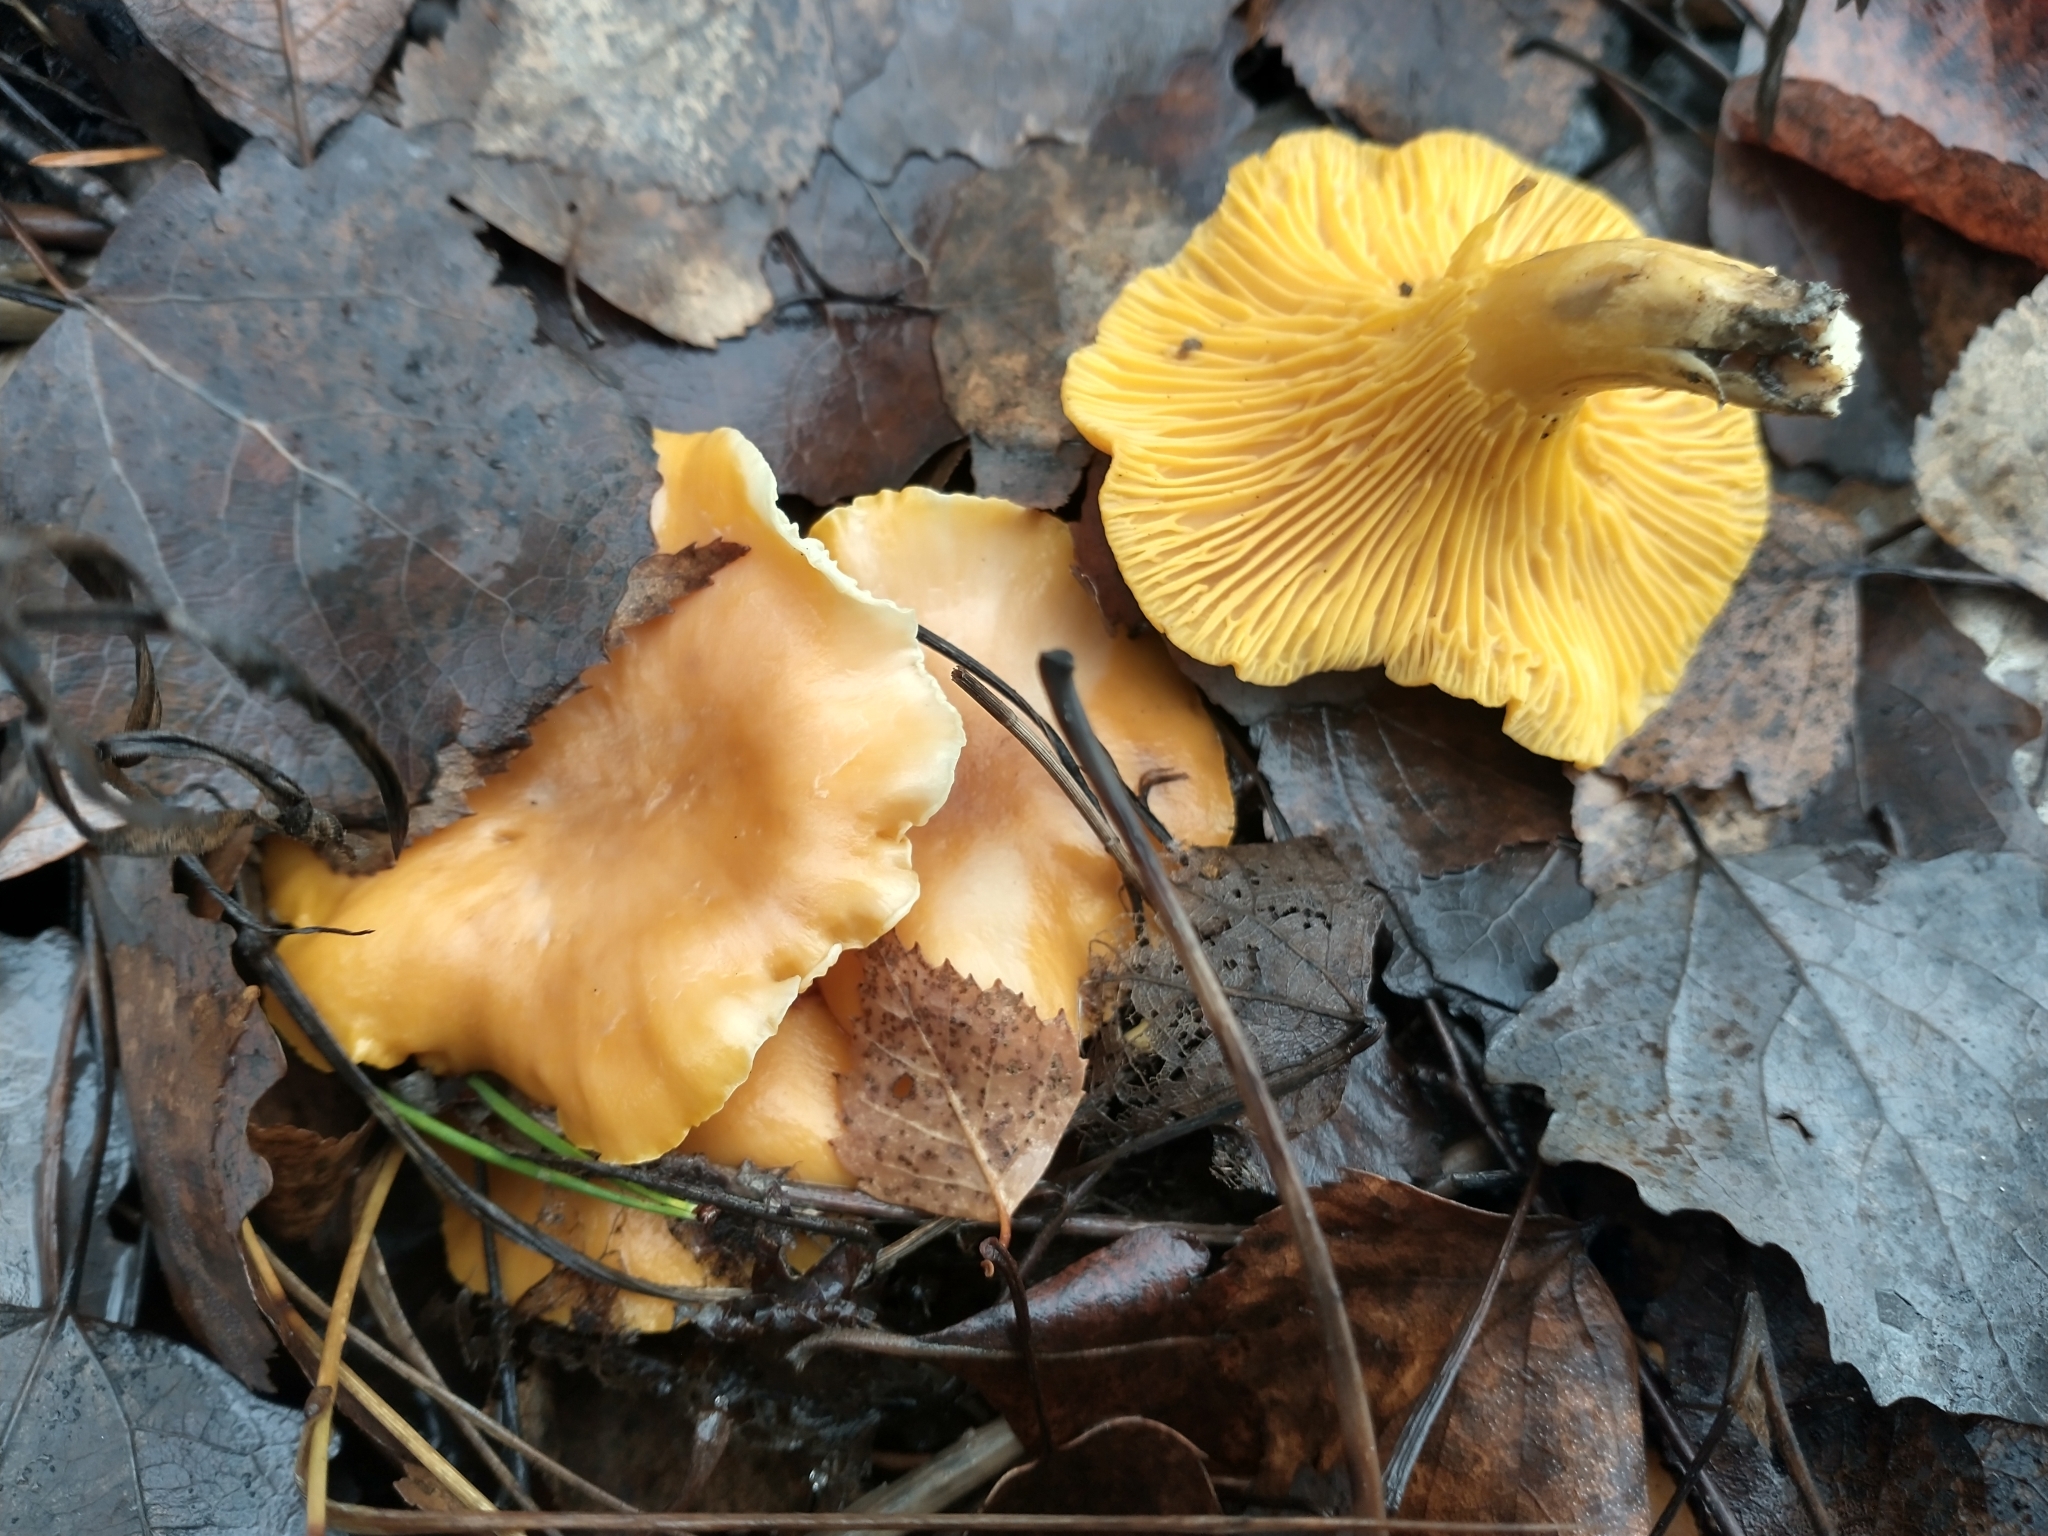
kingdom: Fungi
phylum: Basidiomycota
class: Agaricomycetes
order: Cantharellales
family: Hydnaceae
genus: Cantharellus
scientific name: Cantharellus cibarius
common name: Chanterelle
